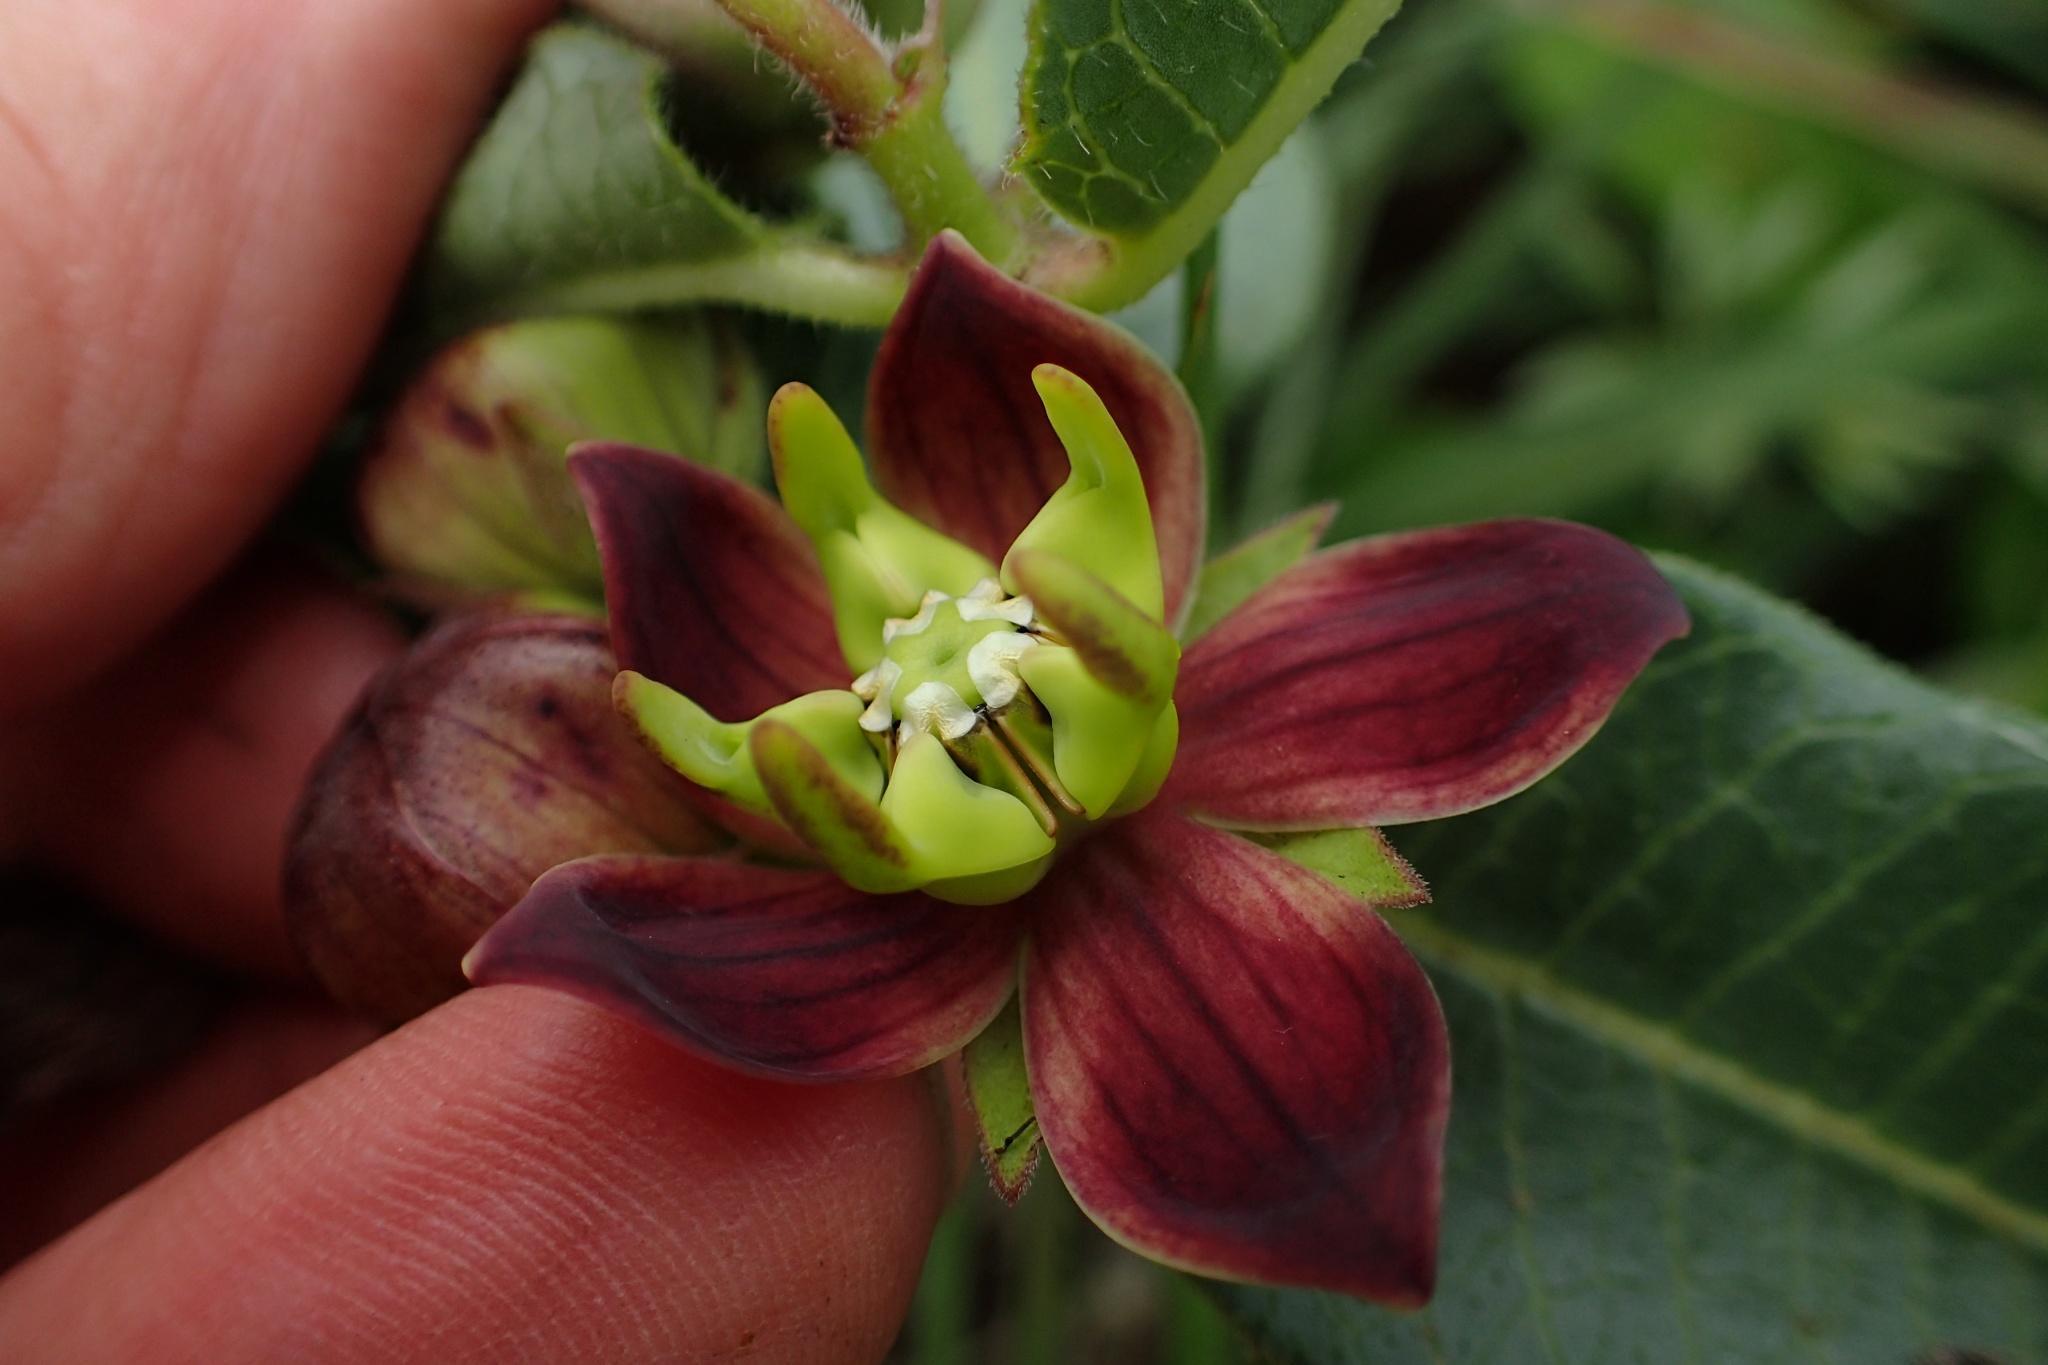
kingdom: Plantae
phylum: Tracheophyta
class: Magnoliopsida
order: Gentianales
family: Apocynaceae
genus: Pachycarpus
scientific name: Pachycarpus concolor
